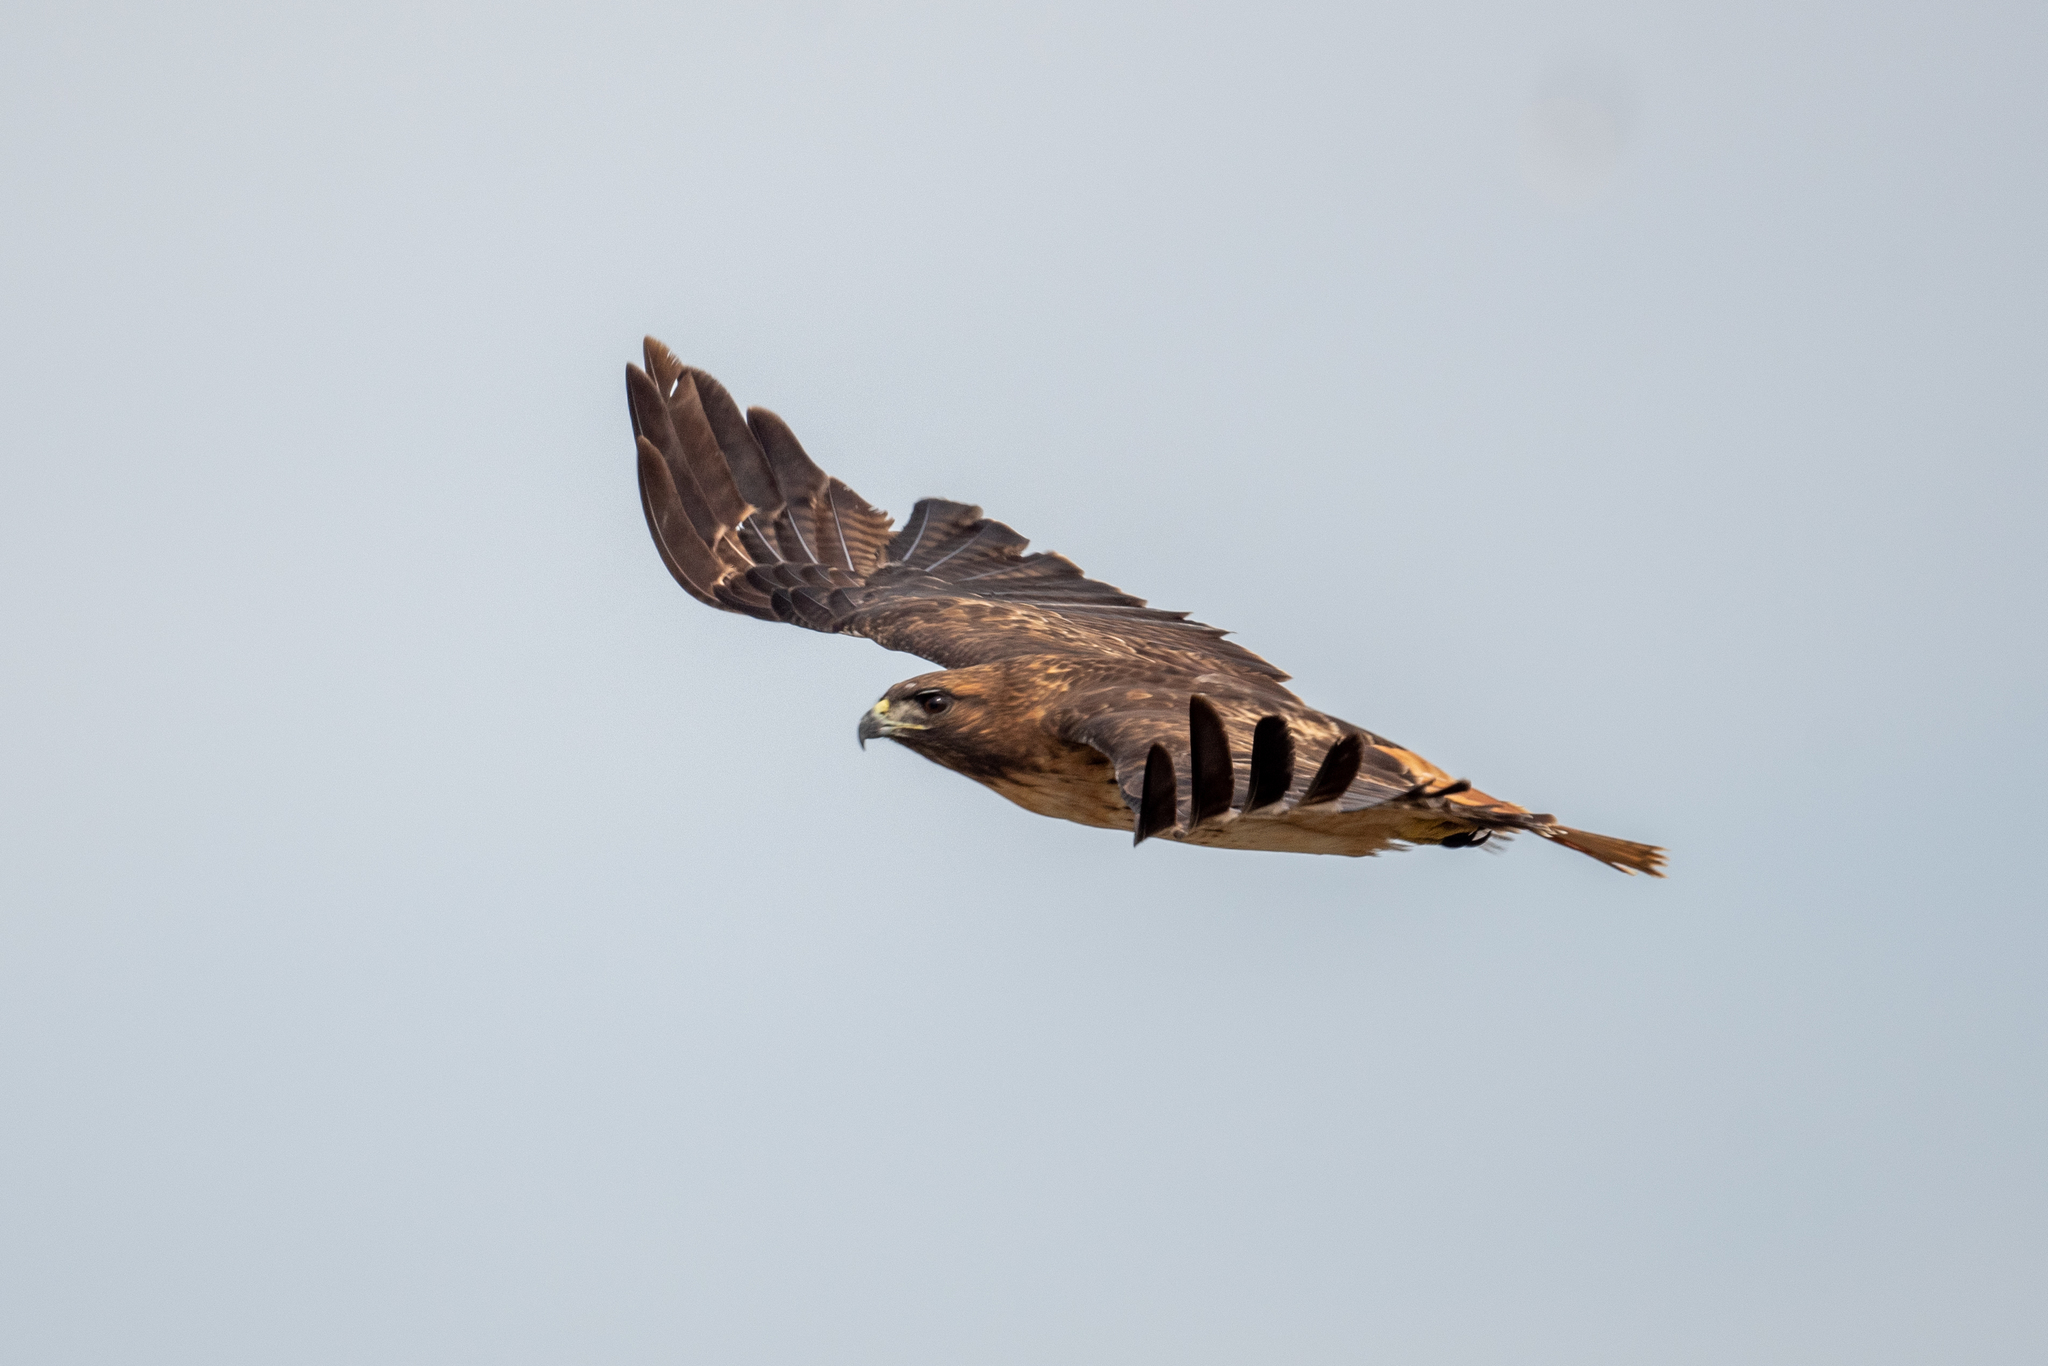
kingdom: Animalia
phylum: Chordata
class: Aves
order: Accipitriformes
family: Accipitridae
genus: Buteo
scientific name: Buteo jamaicensis
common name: Red-tailed hawk
